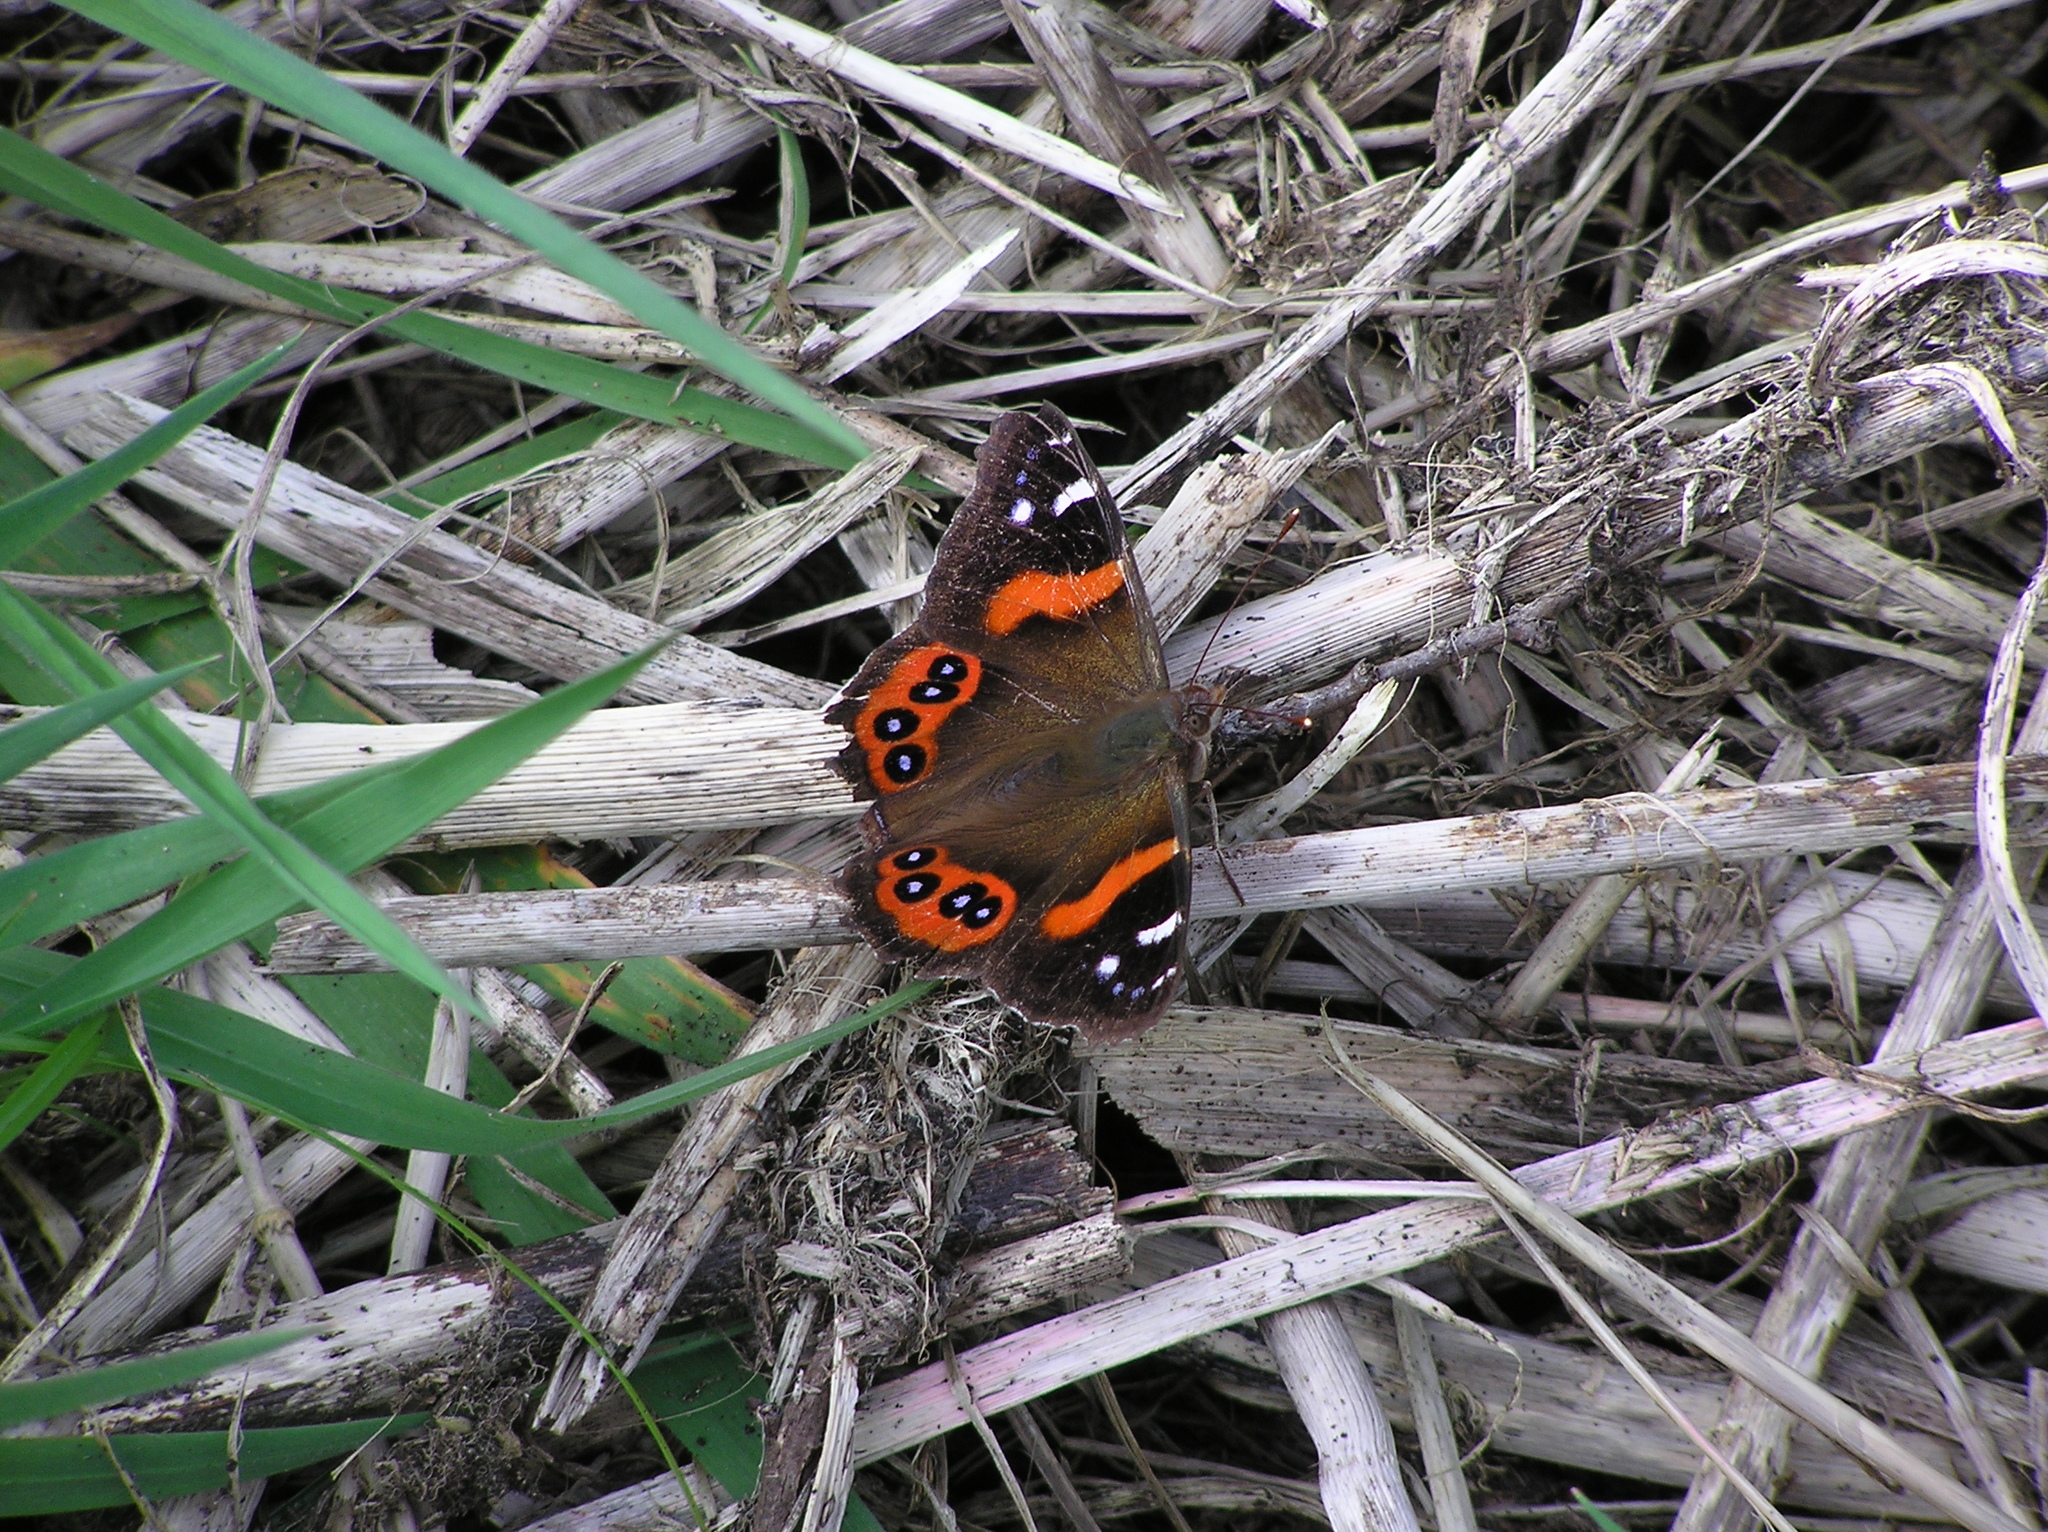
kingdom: Animalia
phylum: Arthropoda
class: Insecta
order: Lepidoptera
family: Nymphalidae
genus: Vanessa
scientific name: Vanessa gonerilla
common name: New zealand red admiral
